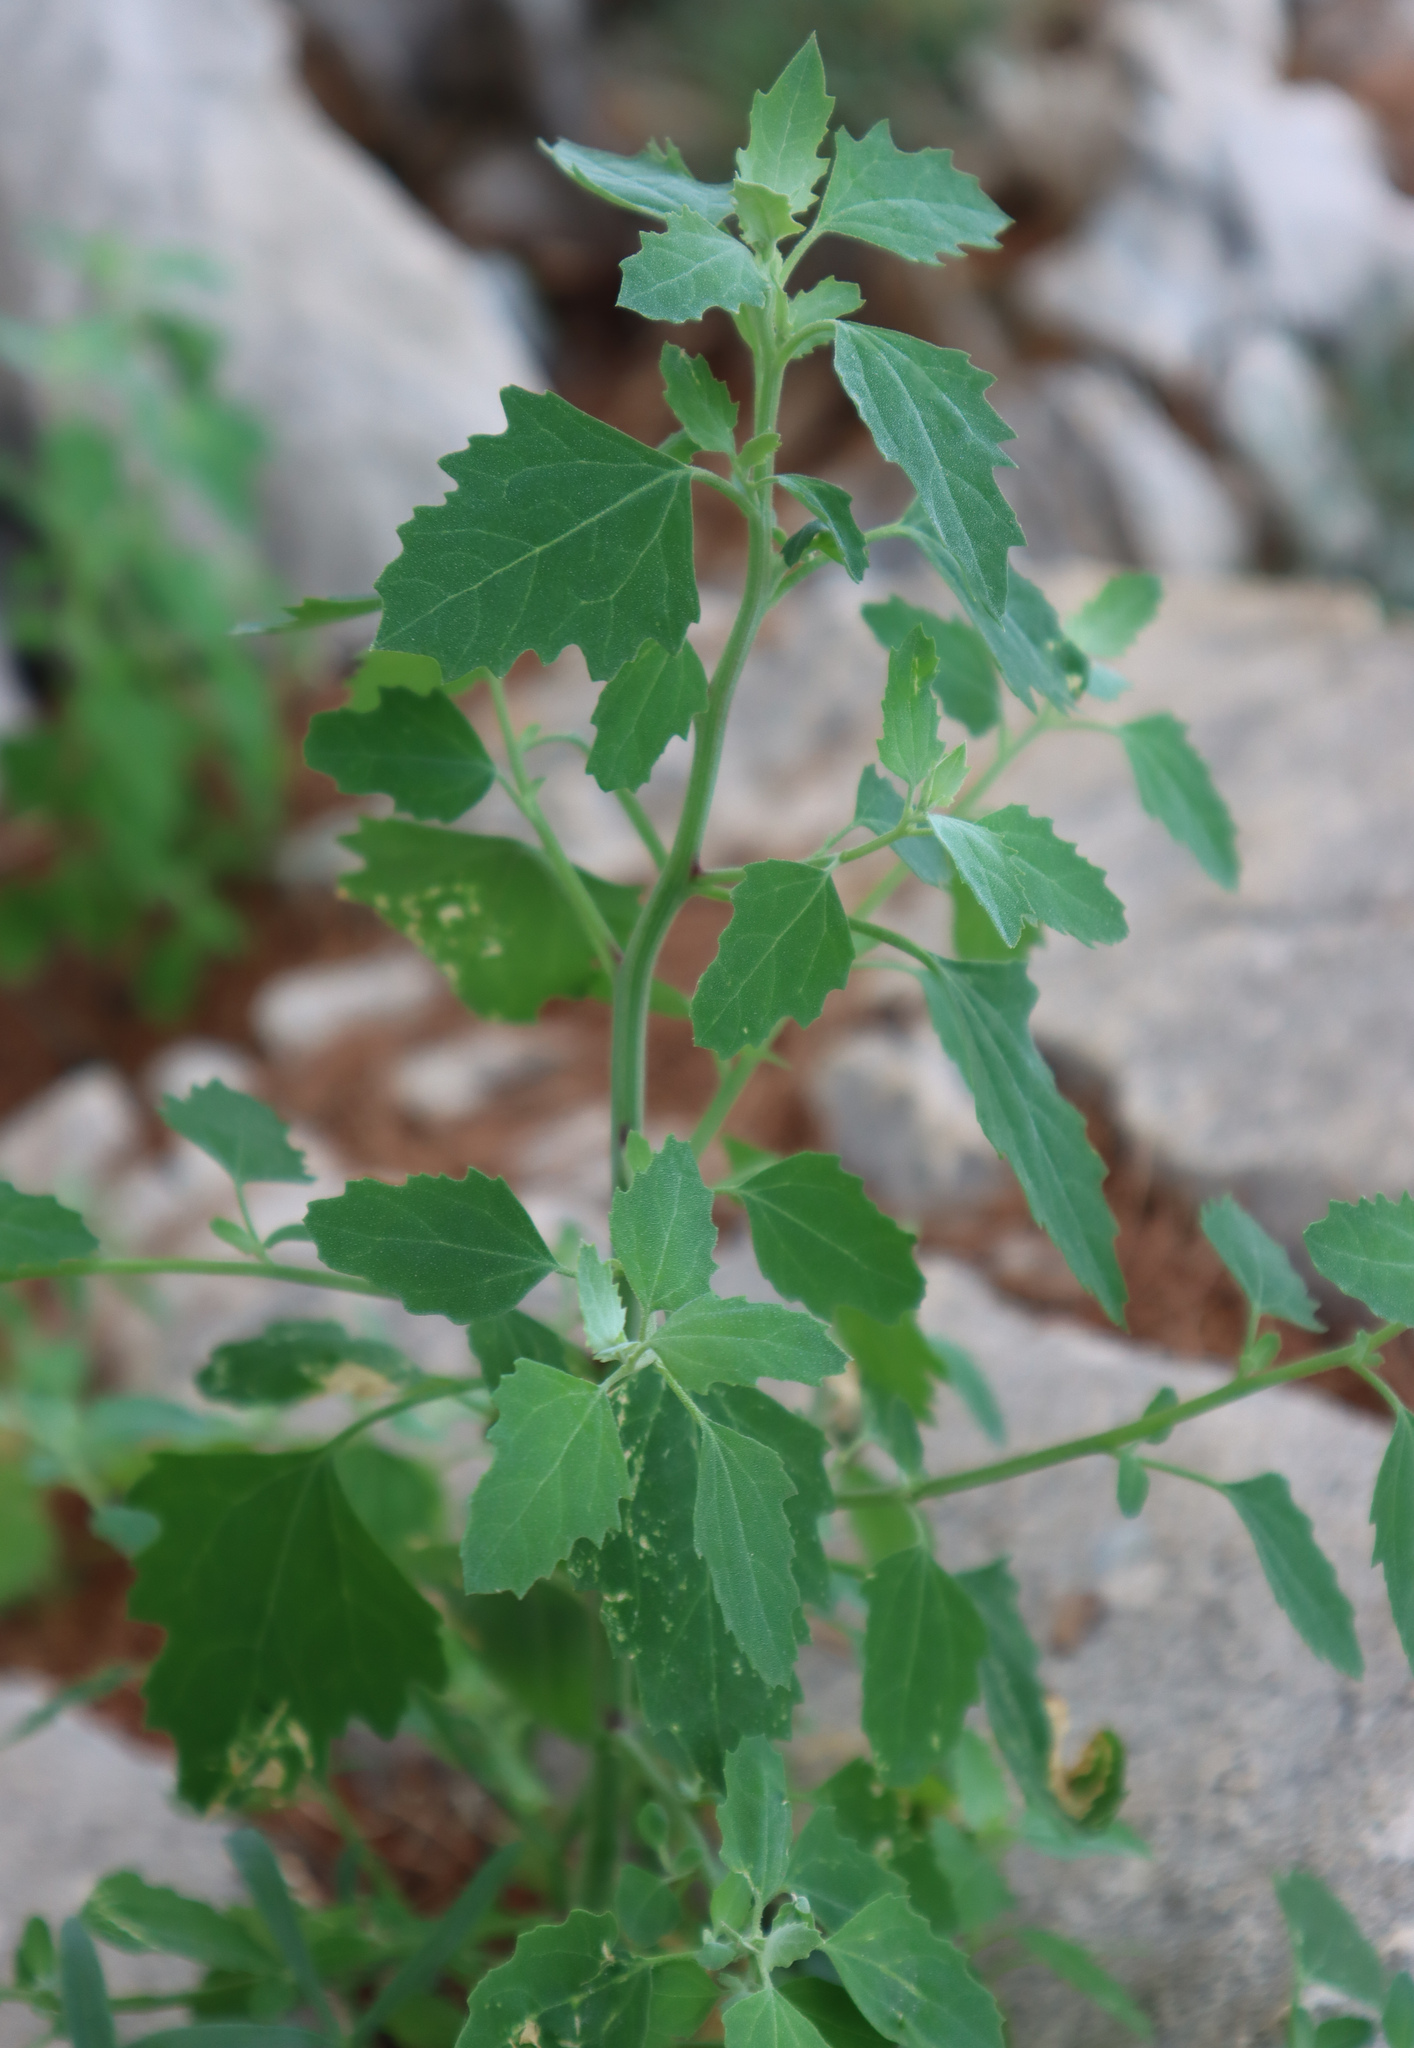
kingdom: Plantae
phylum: Tracheophyta
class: Magnoliopsida
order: Caryophyllales
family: Amaranthaceae
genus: Chenopodium
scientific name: Chenopodium album
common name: Fat-hen
